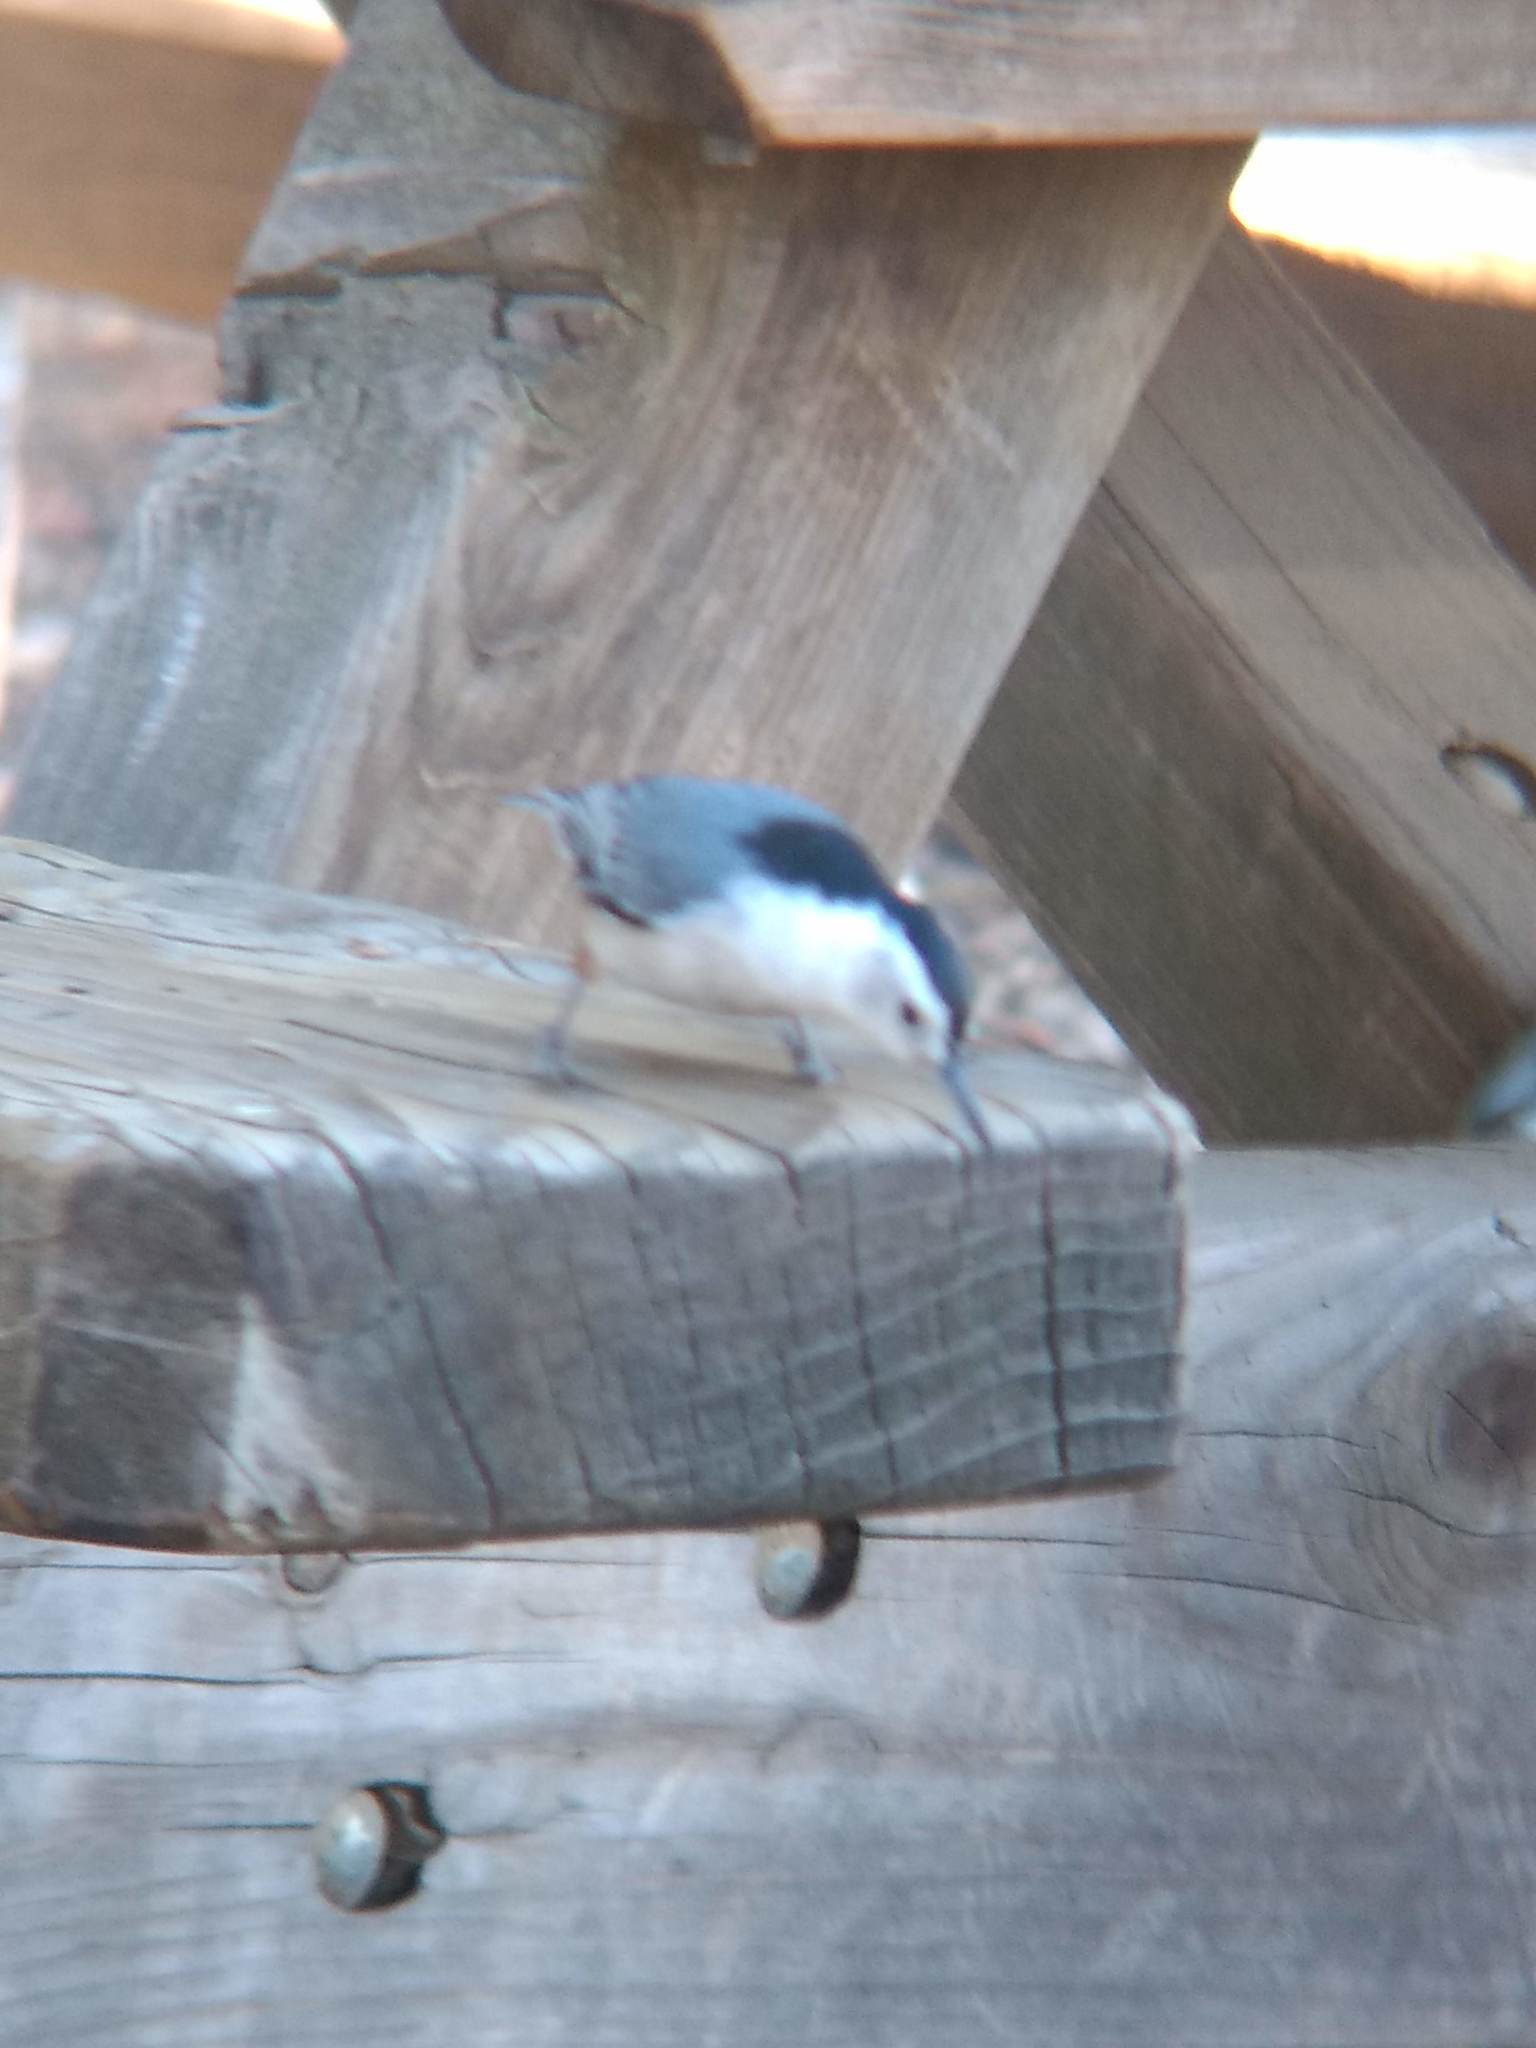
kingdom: Animalia
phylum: Chordata
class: Aves
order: Passeriformes
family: Sittidae
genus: Sitta
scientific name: Sitta carolinensis
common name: White-breasted nuthatch
